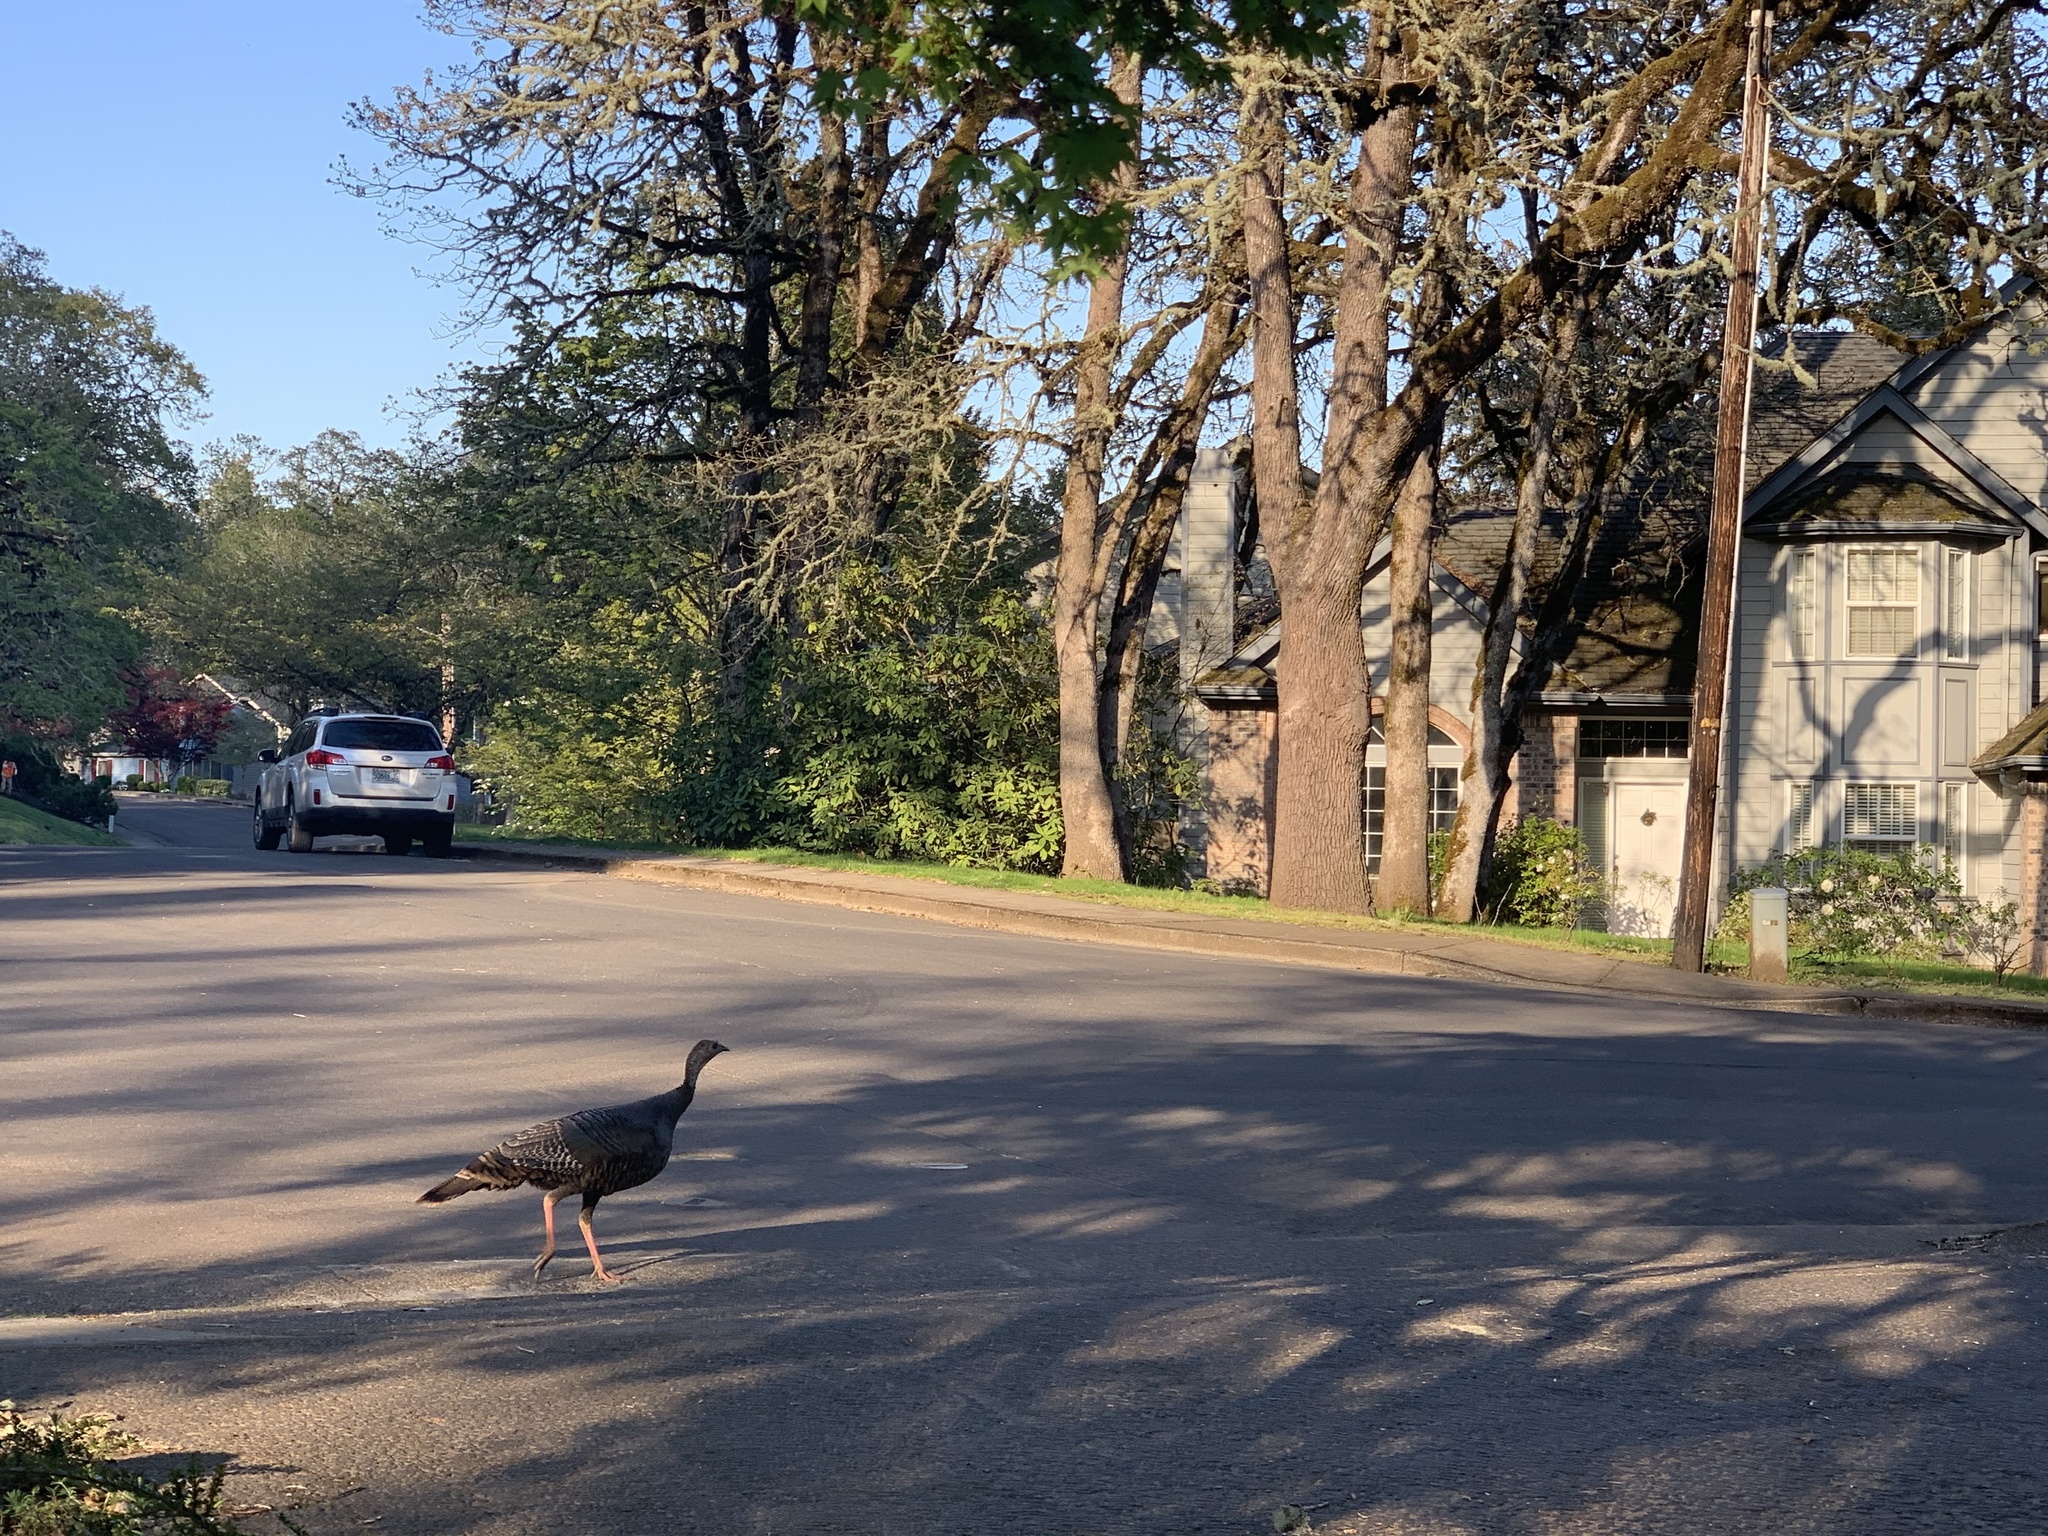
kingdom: Animalia
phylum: Chordata
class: Aves
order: Galliformes
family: Phasianidae
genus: Meleagris
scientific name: Meleagris gallopavo
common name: Wild turkey
